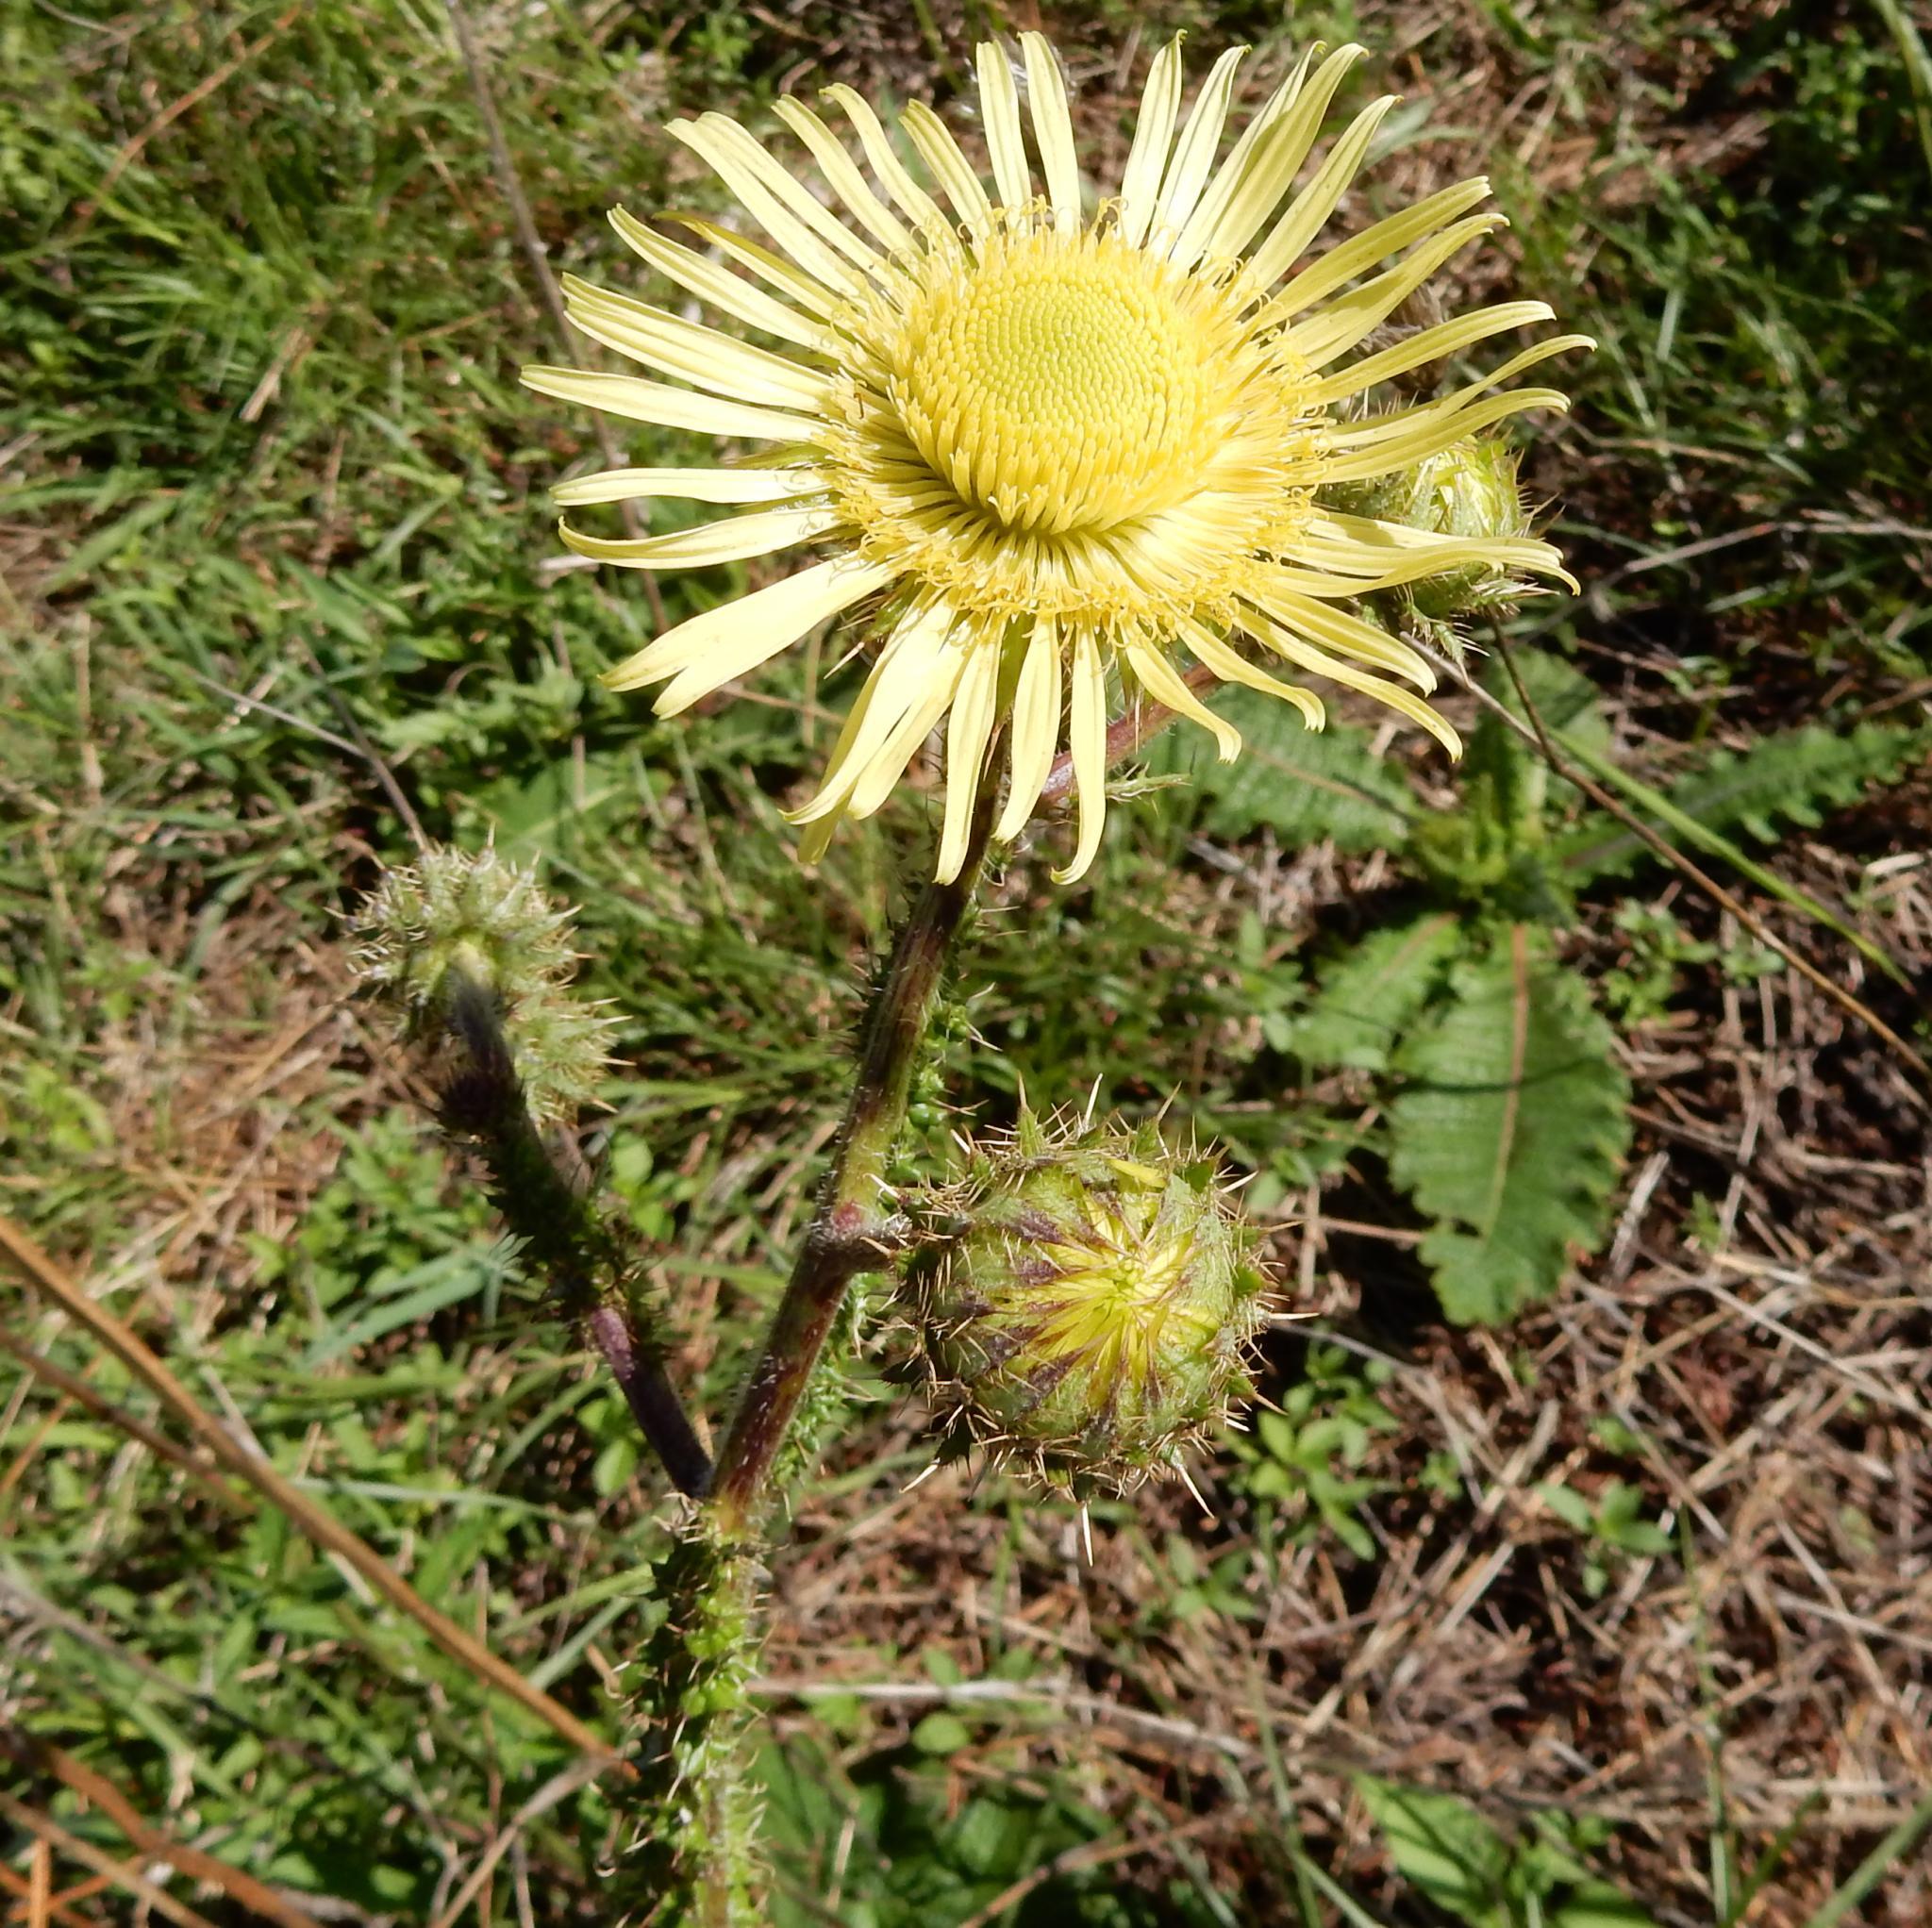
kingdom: Plantae
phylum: Tracheophyta
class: Magnoliopsida
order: Asterales
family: Asteraceae
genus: Berkheya
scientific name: Berkheya radula
